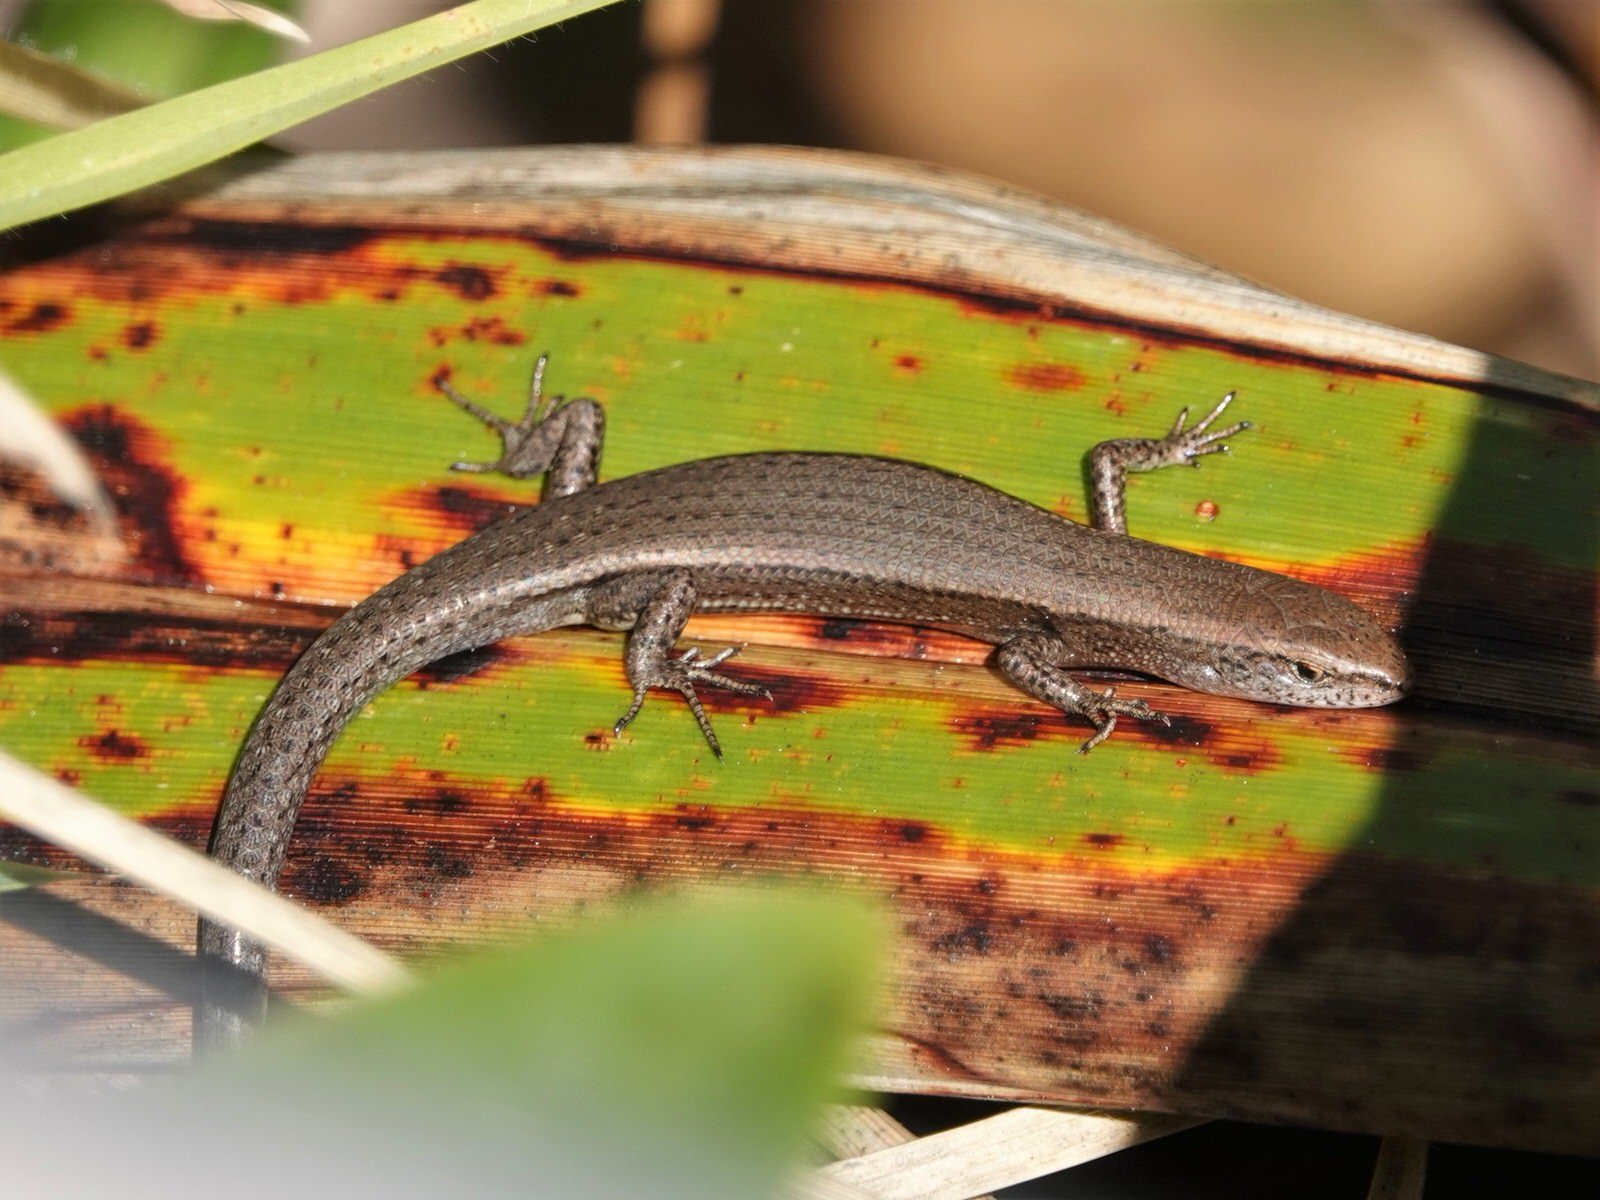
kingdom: Animalia
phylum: Chordata
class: Squamata
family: Scincidae
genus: Lampropholis
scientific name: Lampropholis delicata
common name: Plague skink
